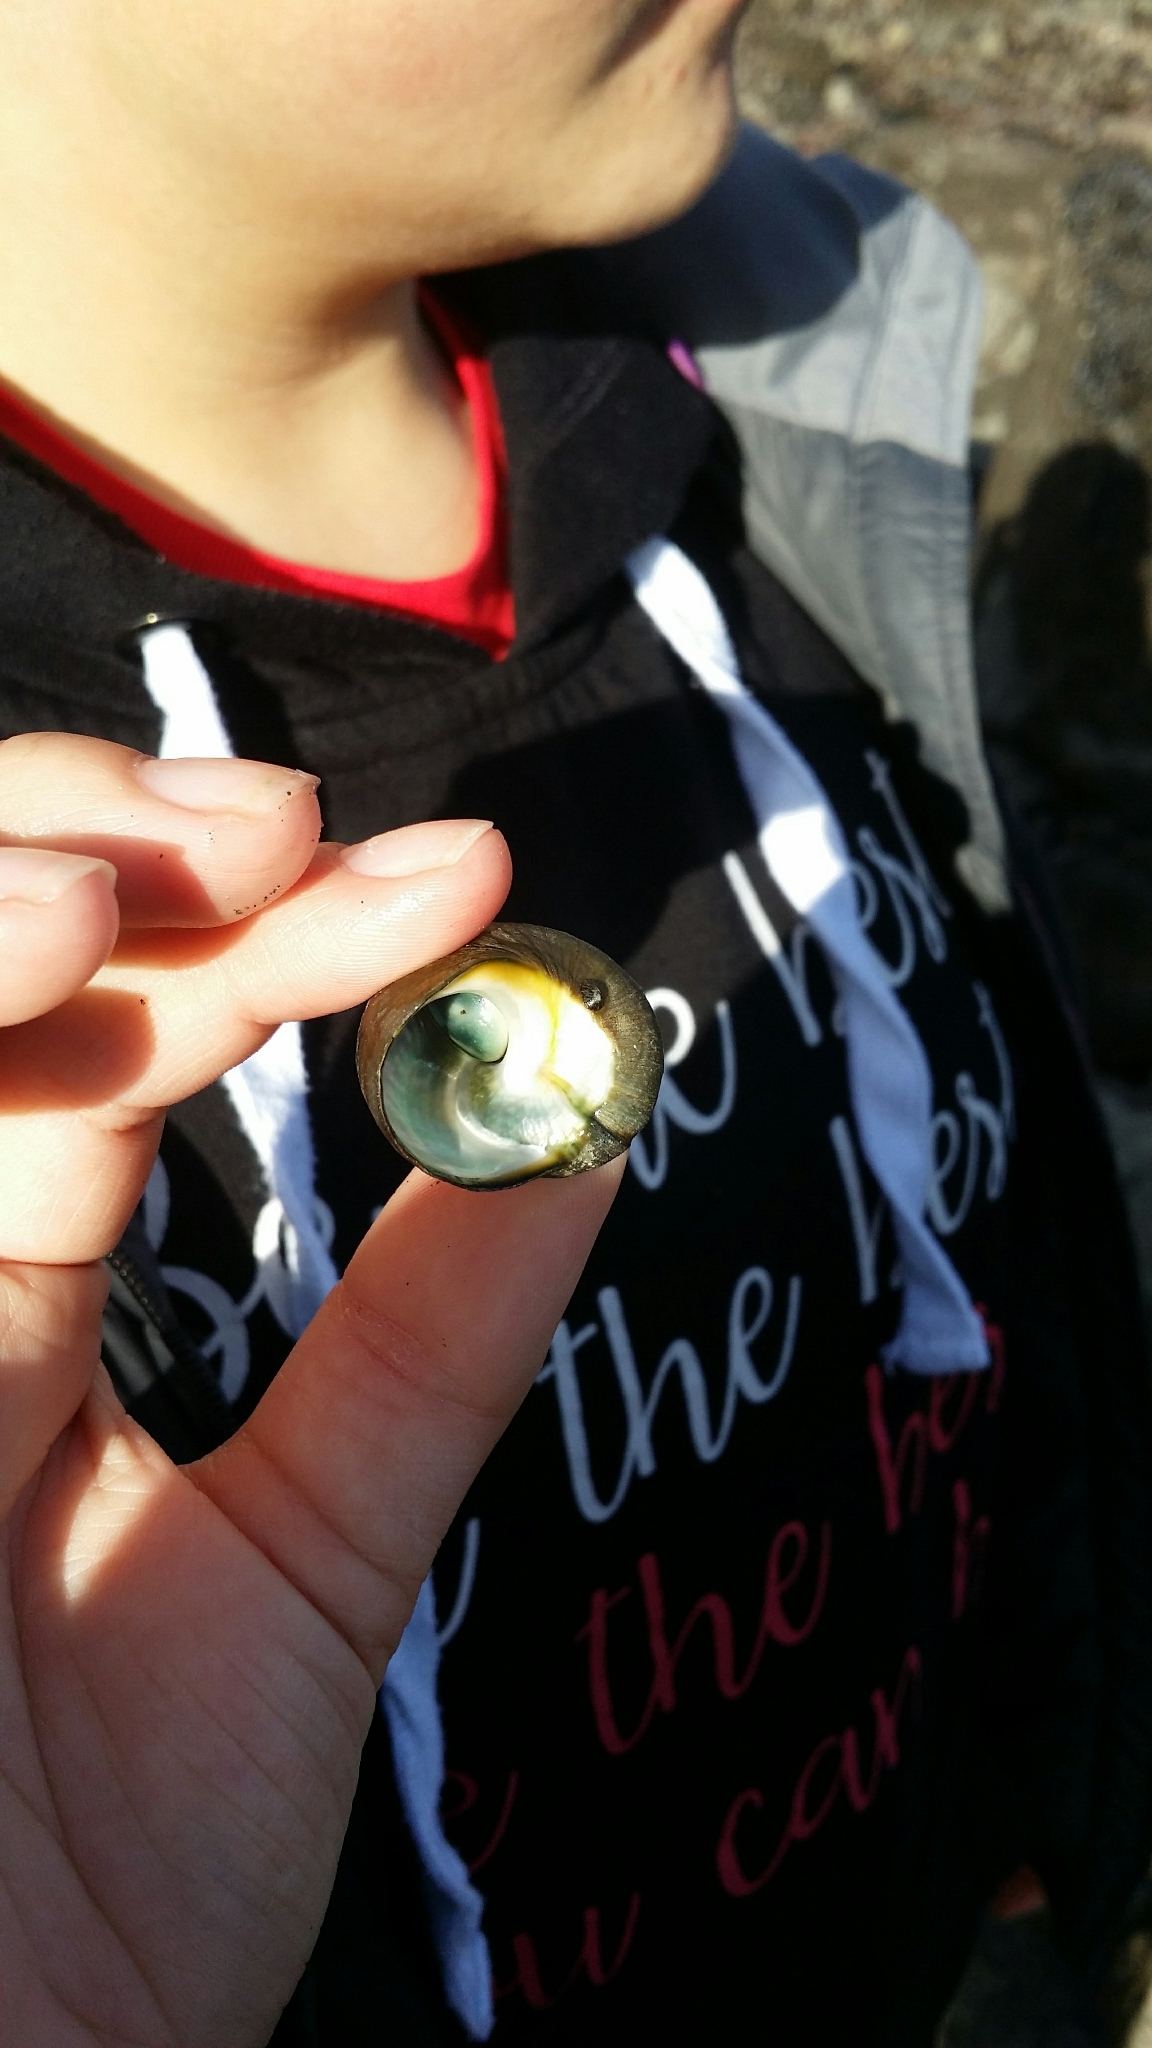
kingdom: Animalia
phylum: Mollusca
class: Gastropoda
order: Trochida
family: Turbinidae
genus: Lunella
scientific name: Lunella smaragda
